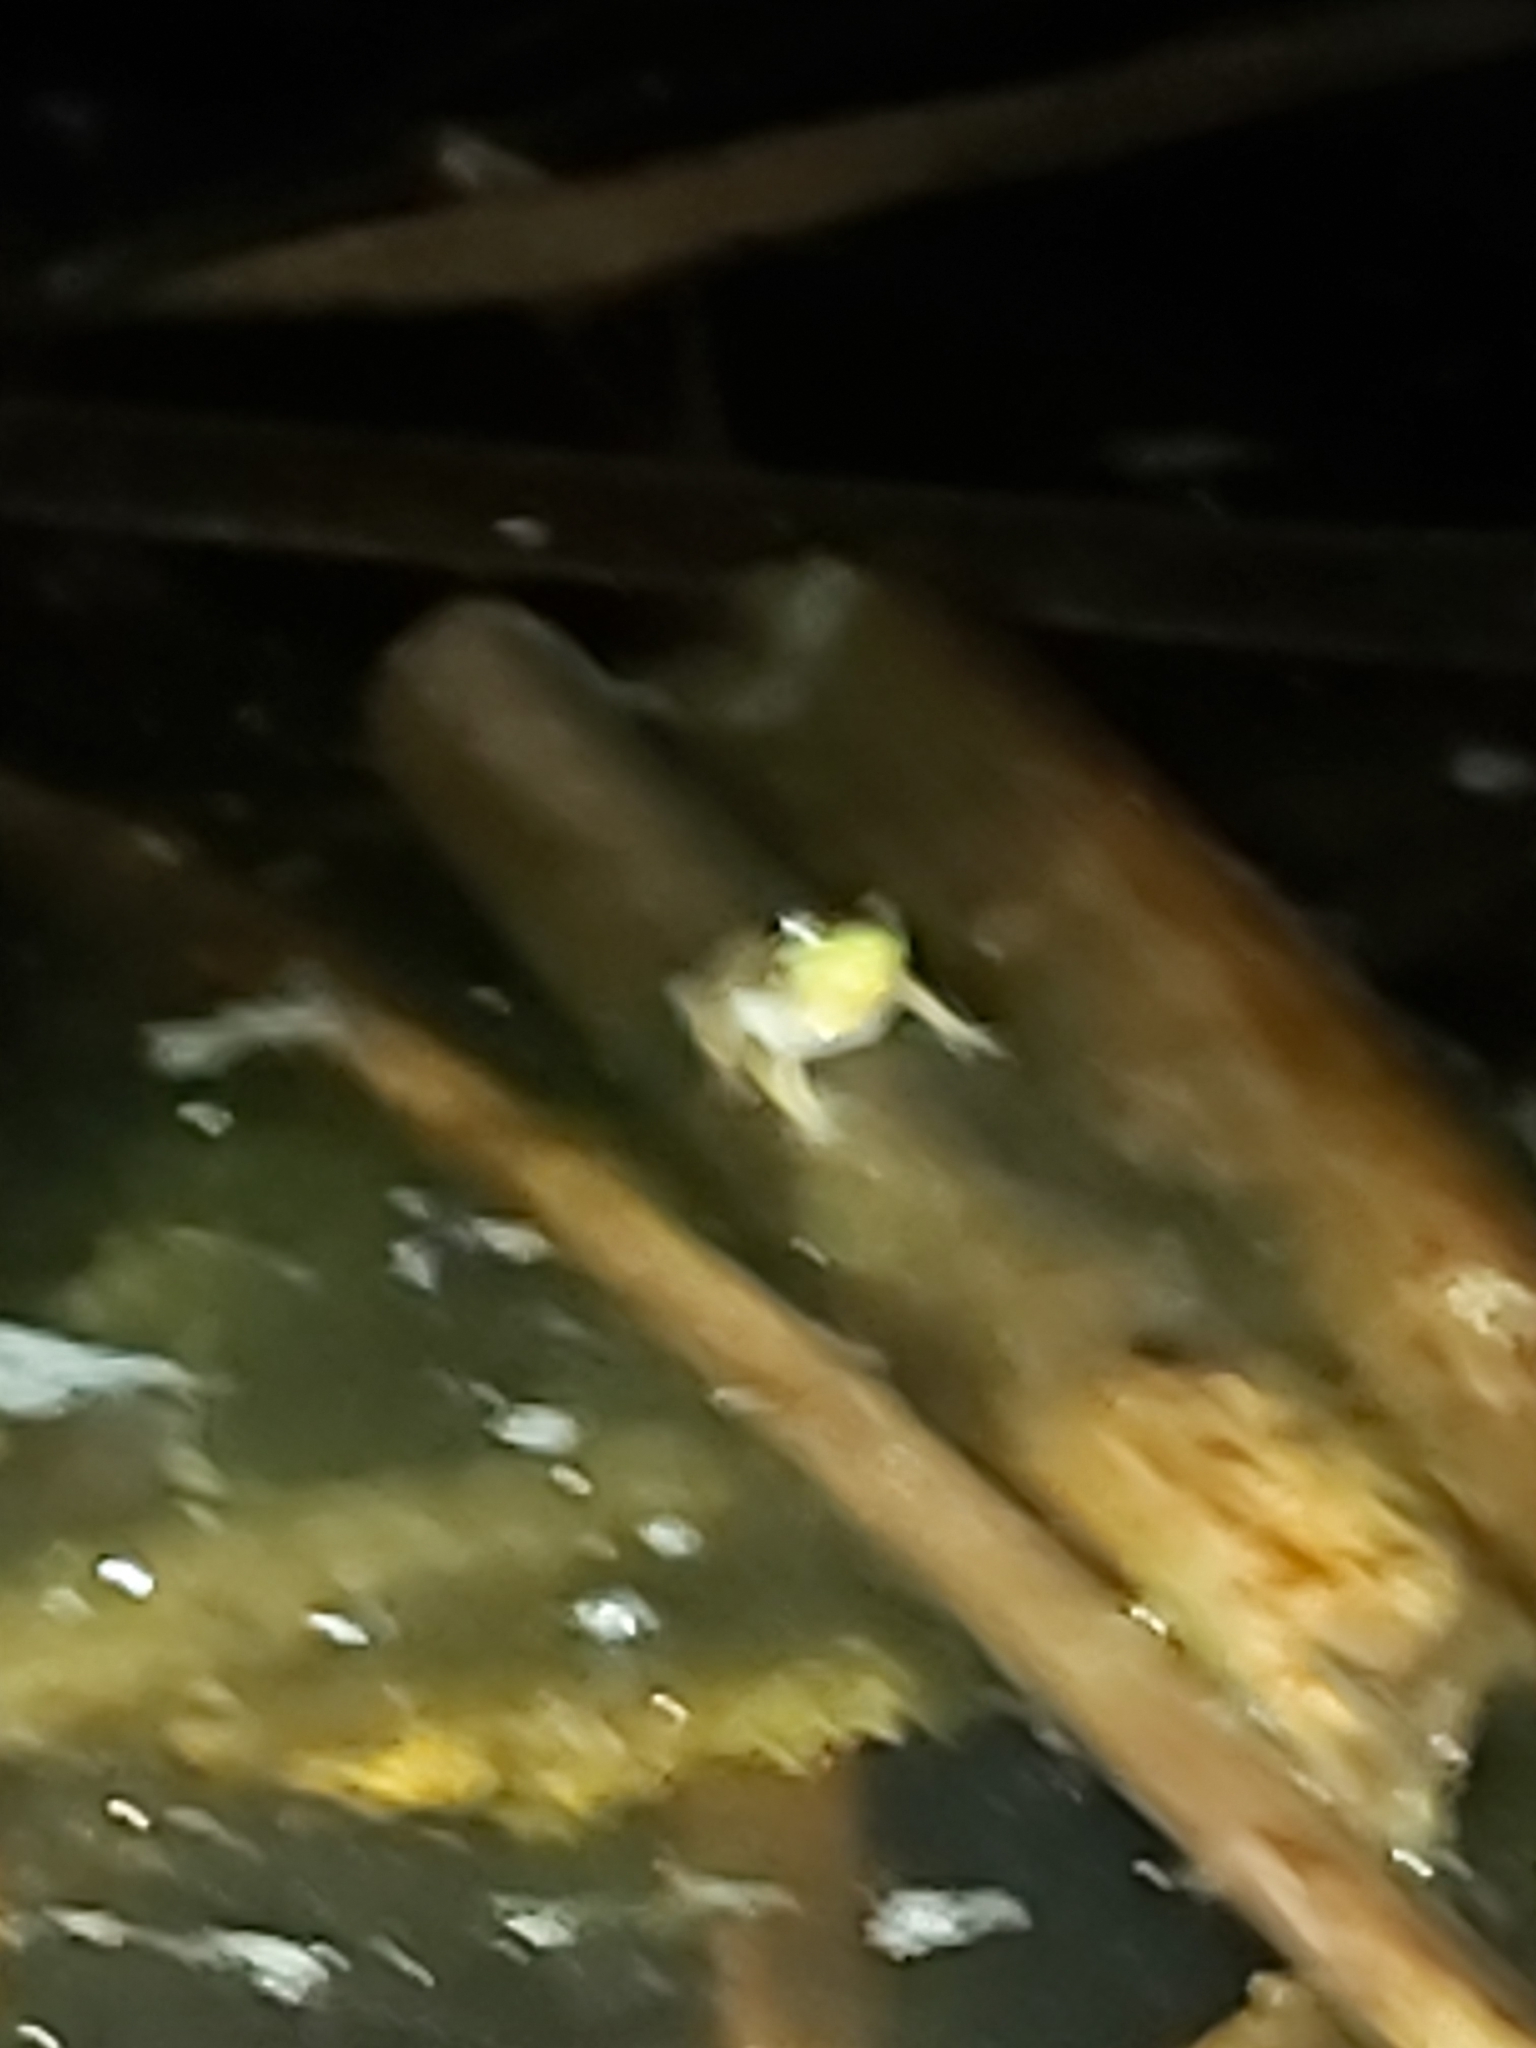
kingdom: Animalia
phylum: Chordata
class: Amphibia
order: Anura
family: Pelodryadidae
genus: Litoria
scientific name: Litoria fallax
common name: Eastern dwarf treefrog
